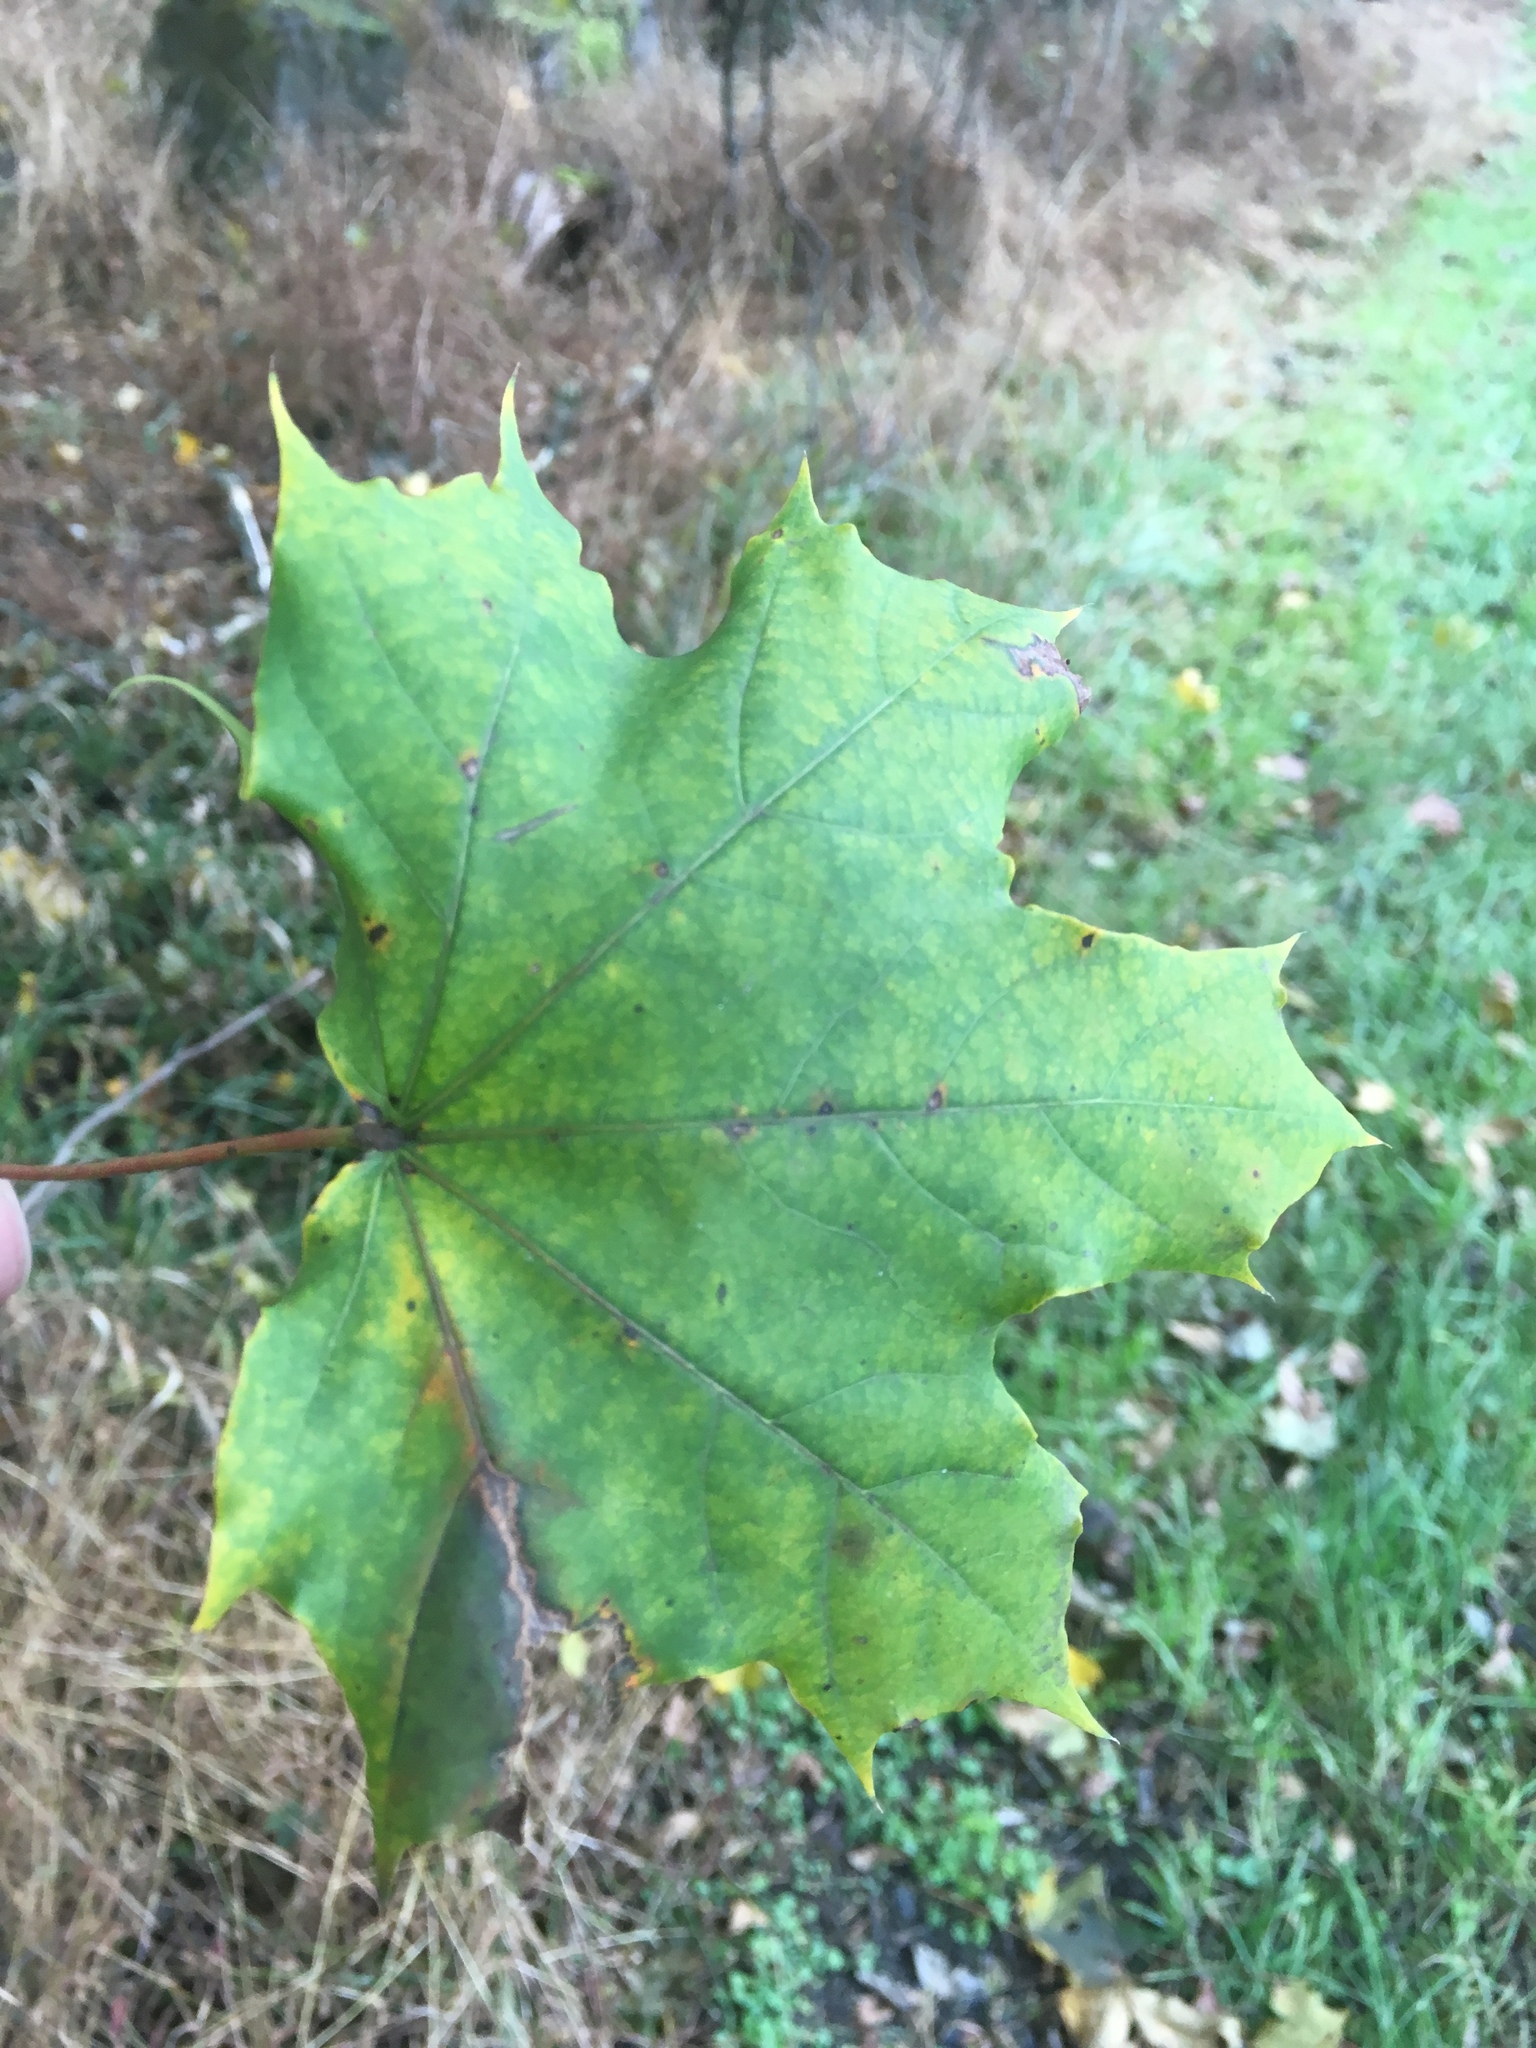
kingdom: Plantae
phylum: Tracheophyta
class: Magnoliopsida
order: Sapindales
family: Sapindaceae
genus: Acer
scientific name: Acer platanoides
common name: Norway maple
